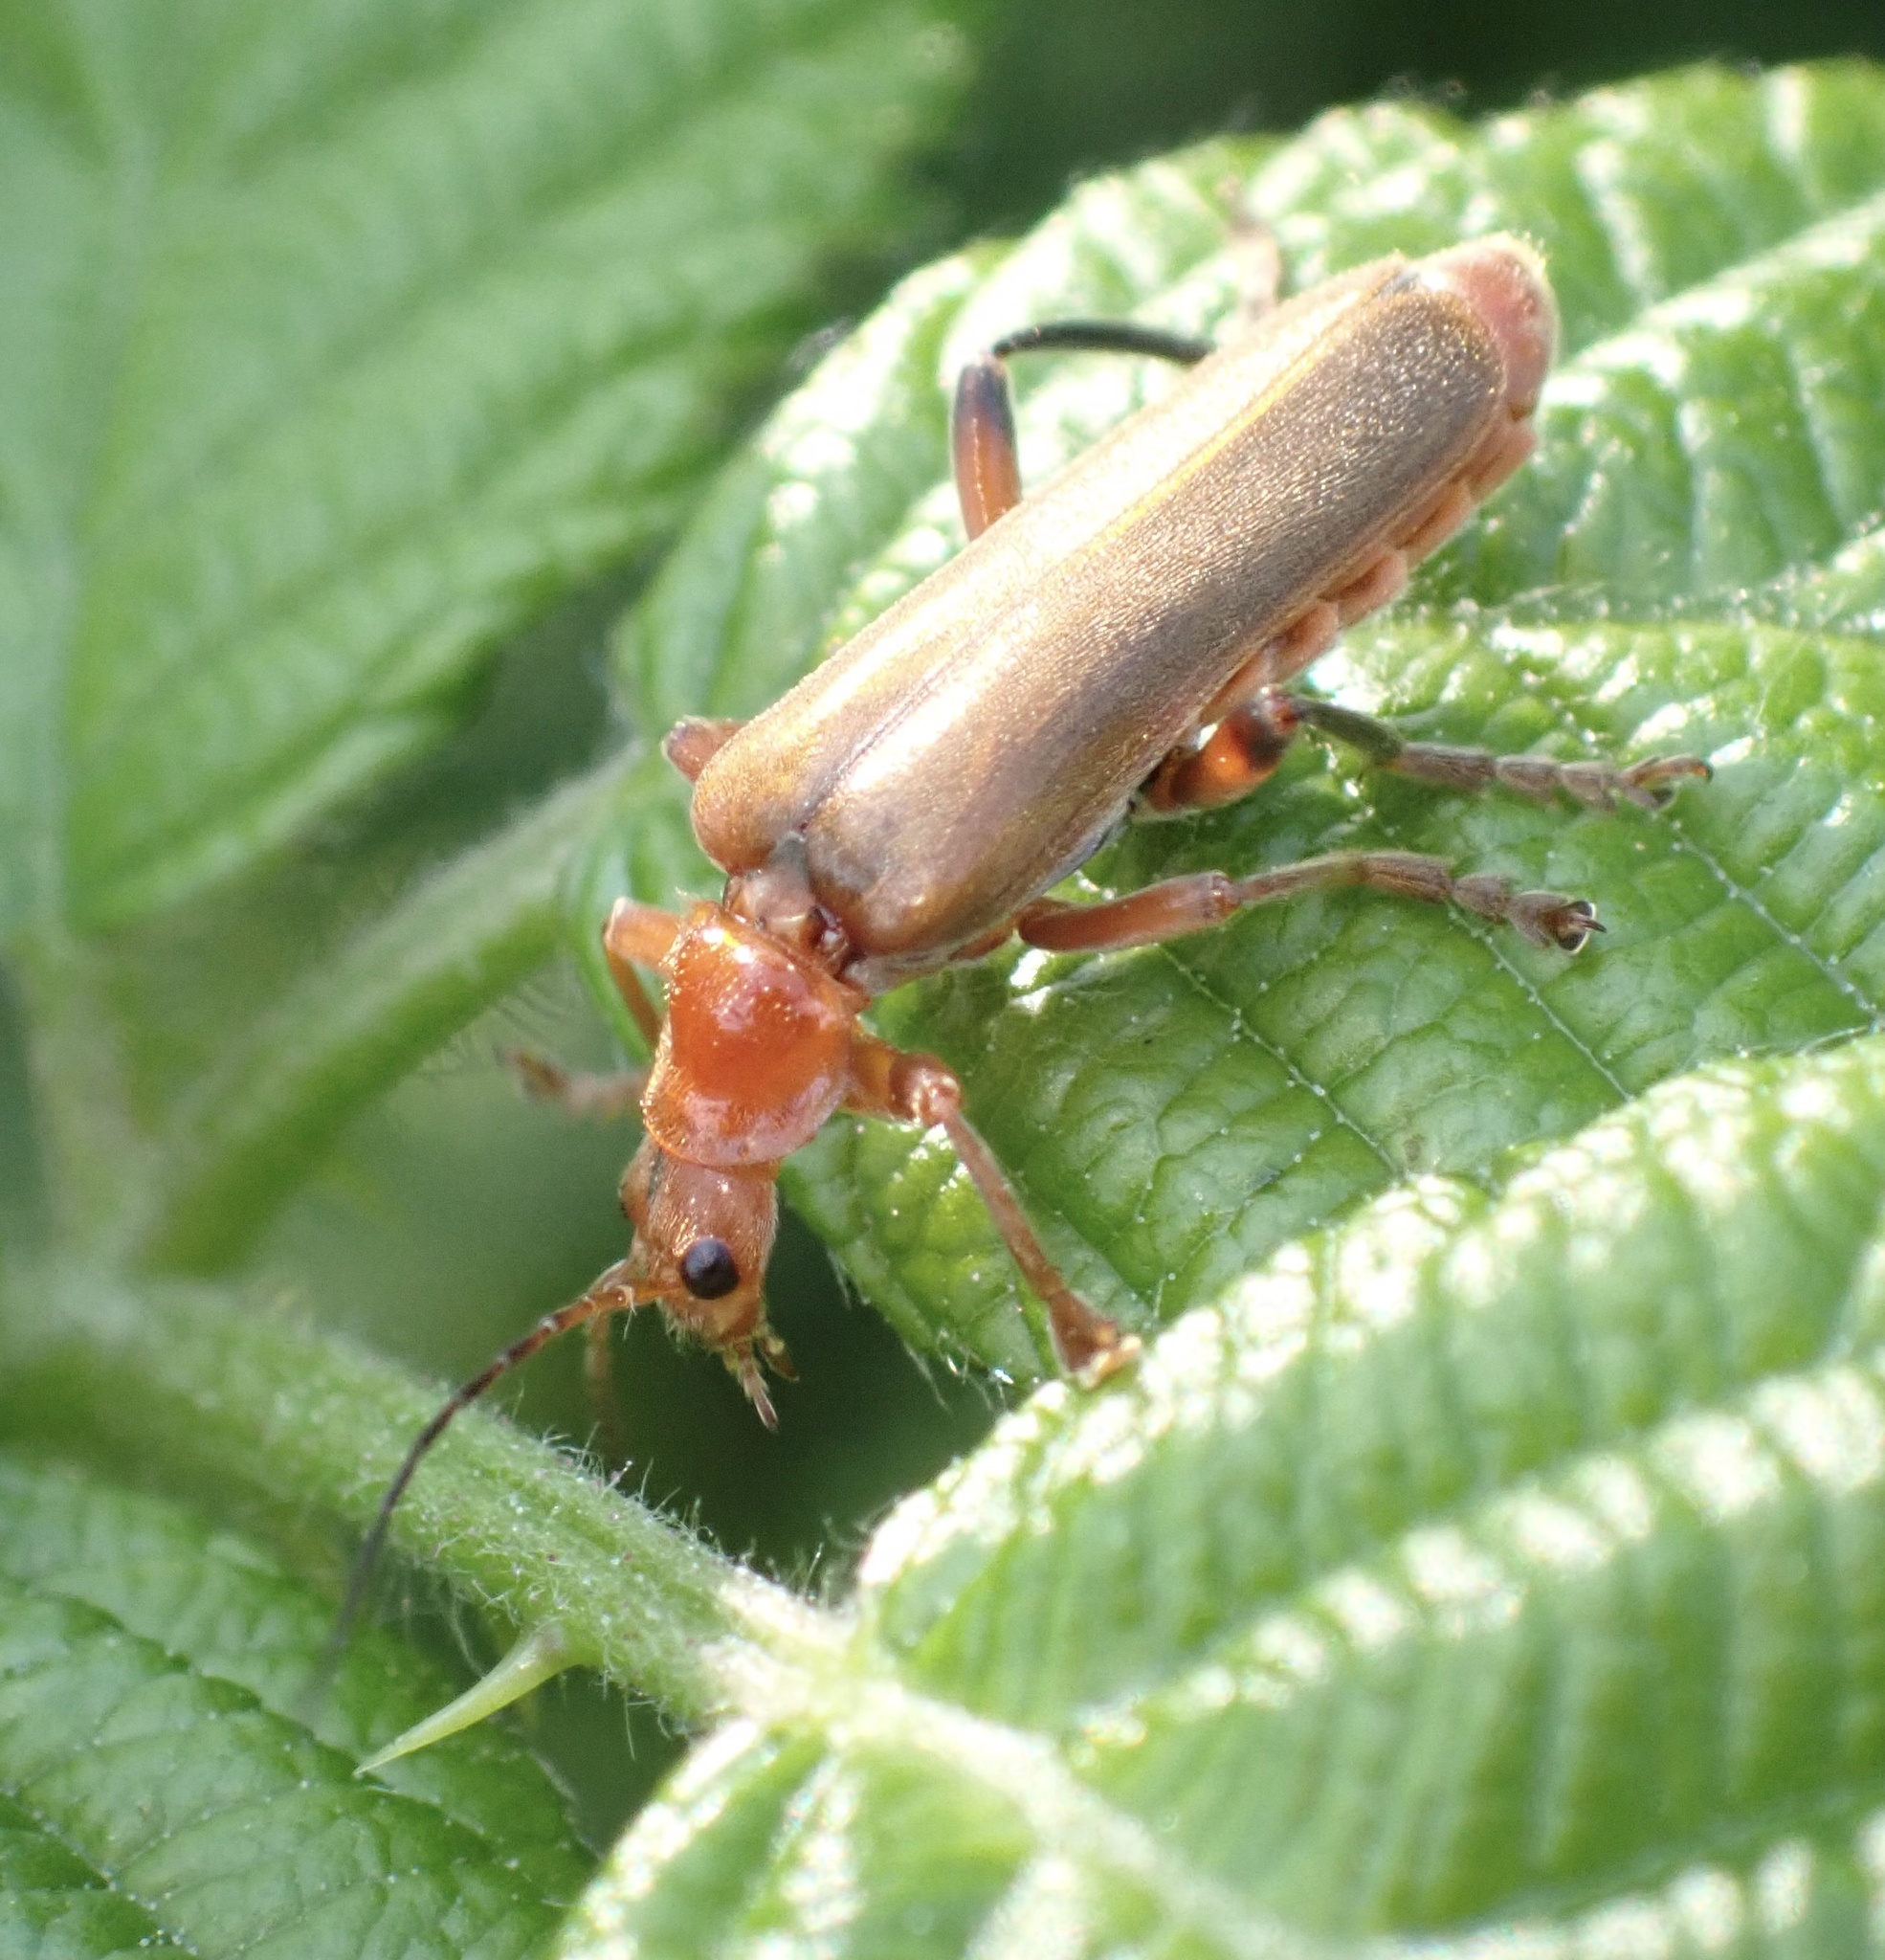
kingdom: Animalia
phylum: Arthropoda
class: Insecta
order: Coleoptera
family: Cantharidae
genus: Cantharis
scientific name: Cantharis livida
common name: Livid soldier beetle
